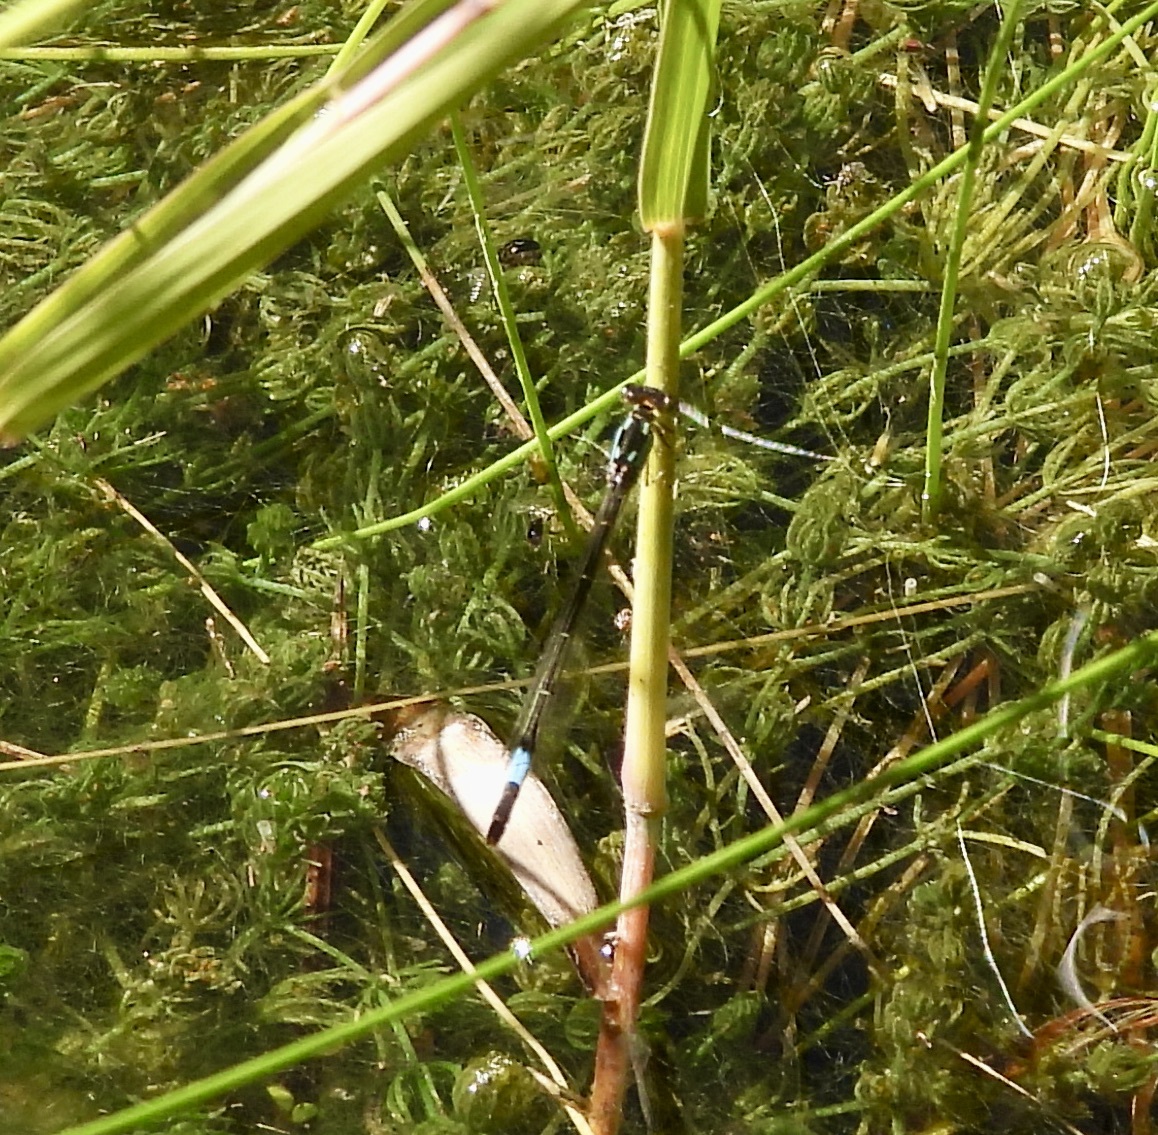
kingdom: Animalia
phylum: Arthropoda
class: Insecta
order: Odonata
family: Coenagrionidae
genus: Hesperagrion
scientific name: Hesperagrion heterodoxum
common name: Painted damsel
